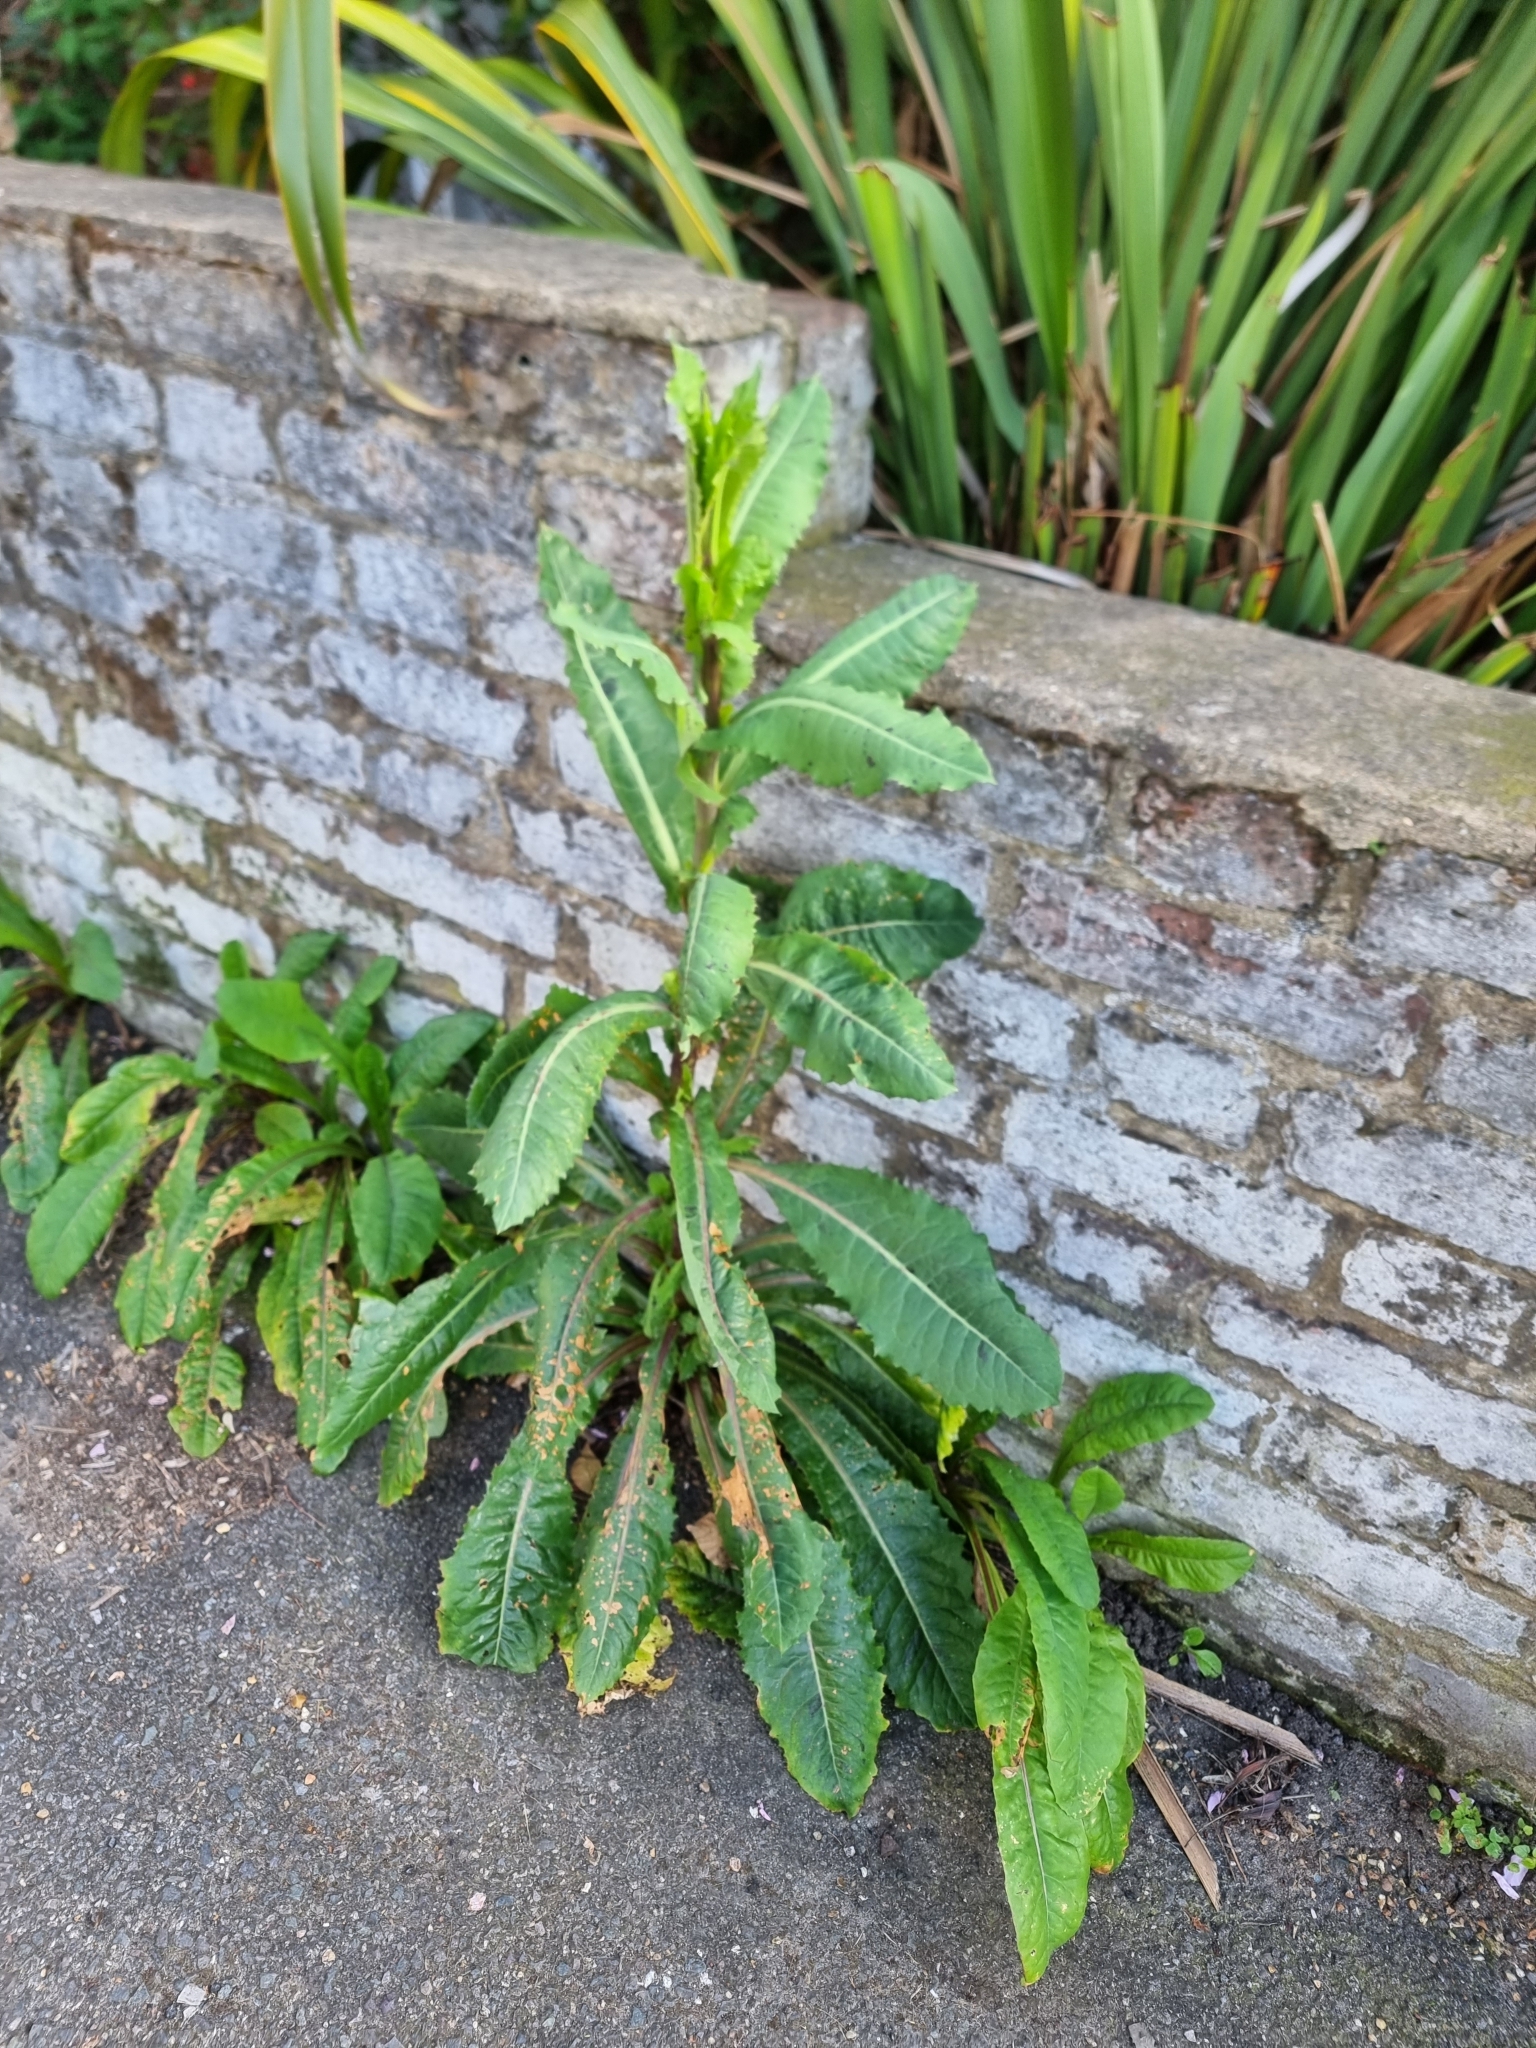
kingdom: Plantae
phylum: Tracheophyta
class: Magnoliopsida
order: Asterales
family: Asteraceae
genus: Lactuca
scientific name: Lactuca virosa
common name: Great lettuce
